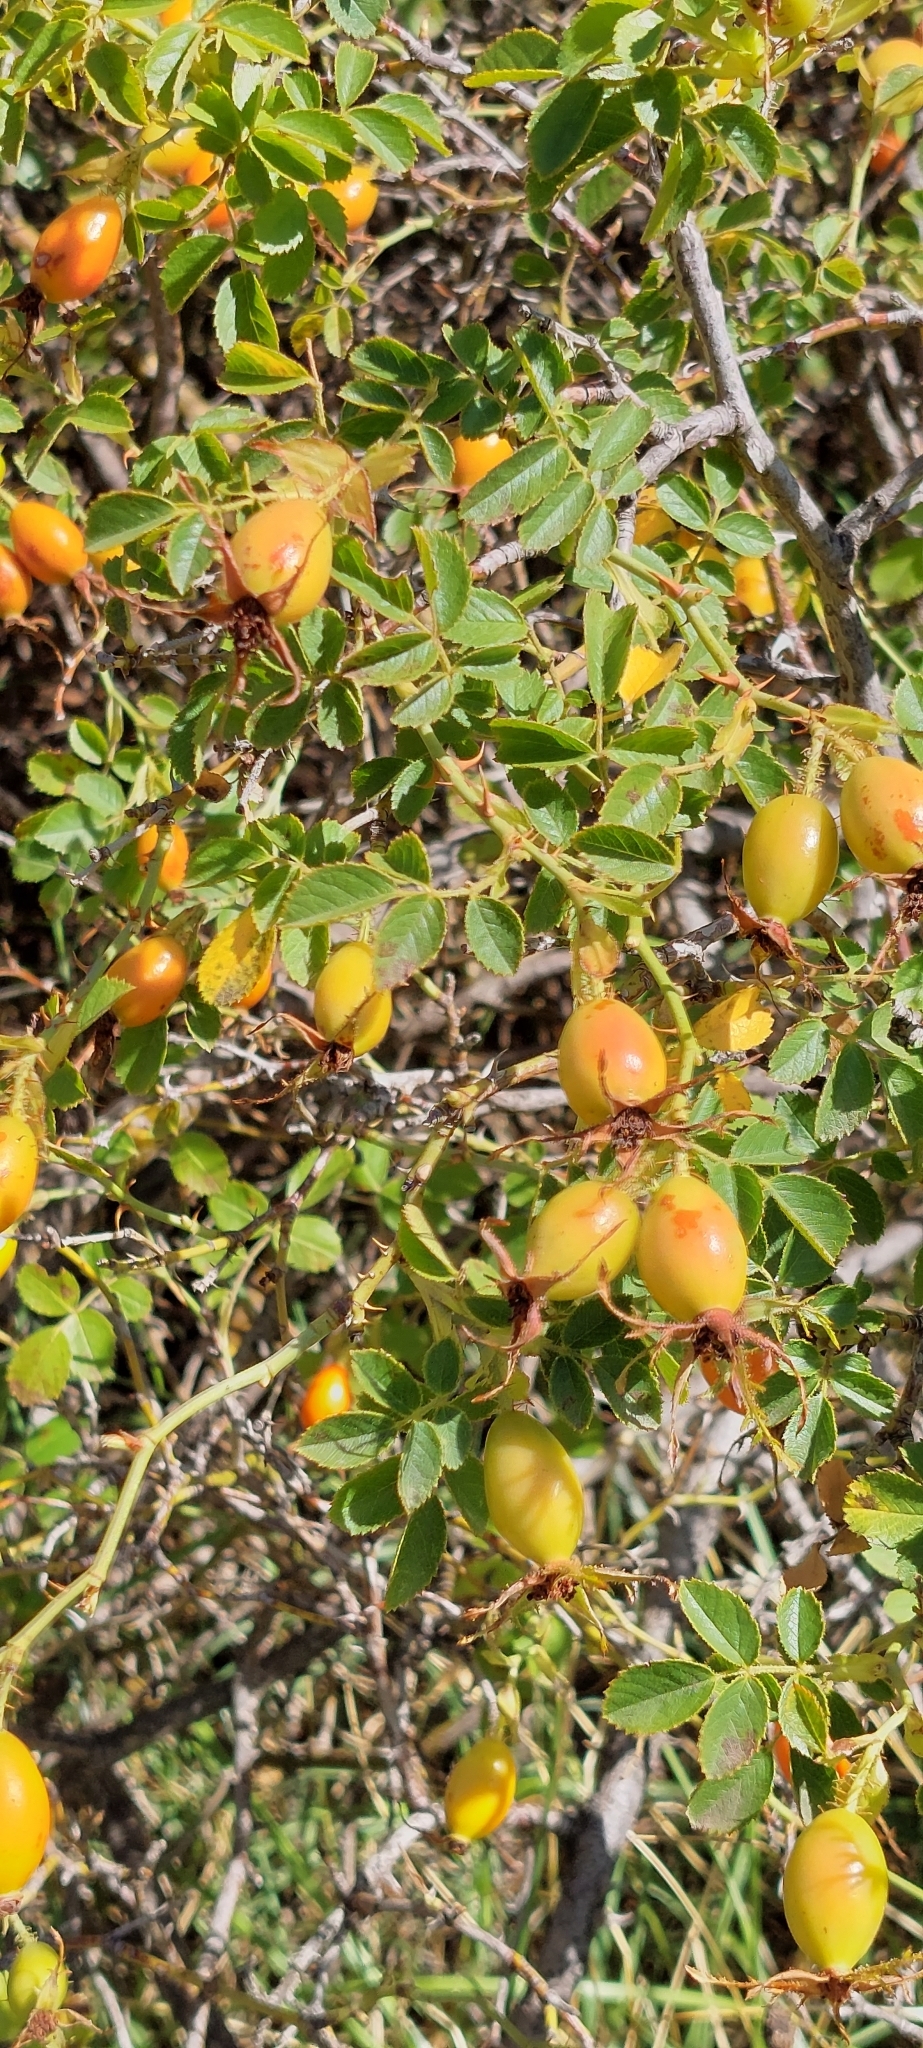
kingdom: Plantae
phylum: Tracheophyta
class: Magnoliopsida
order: Rosales
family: Rosaceae
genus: Rosa
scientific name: Rosa rubiginosa
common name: Sweet-briar
